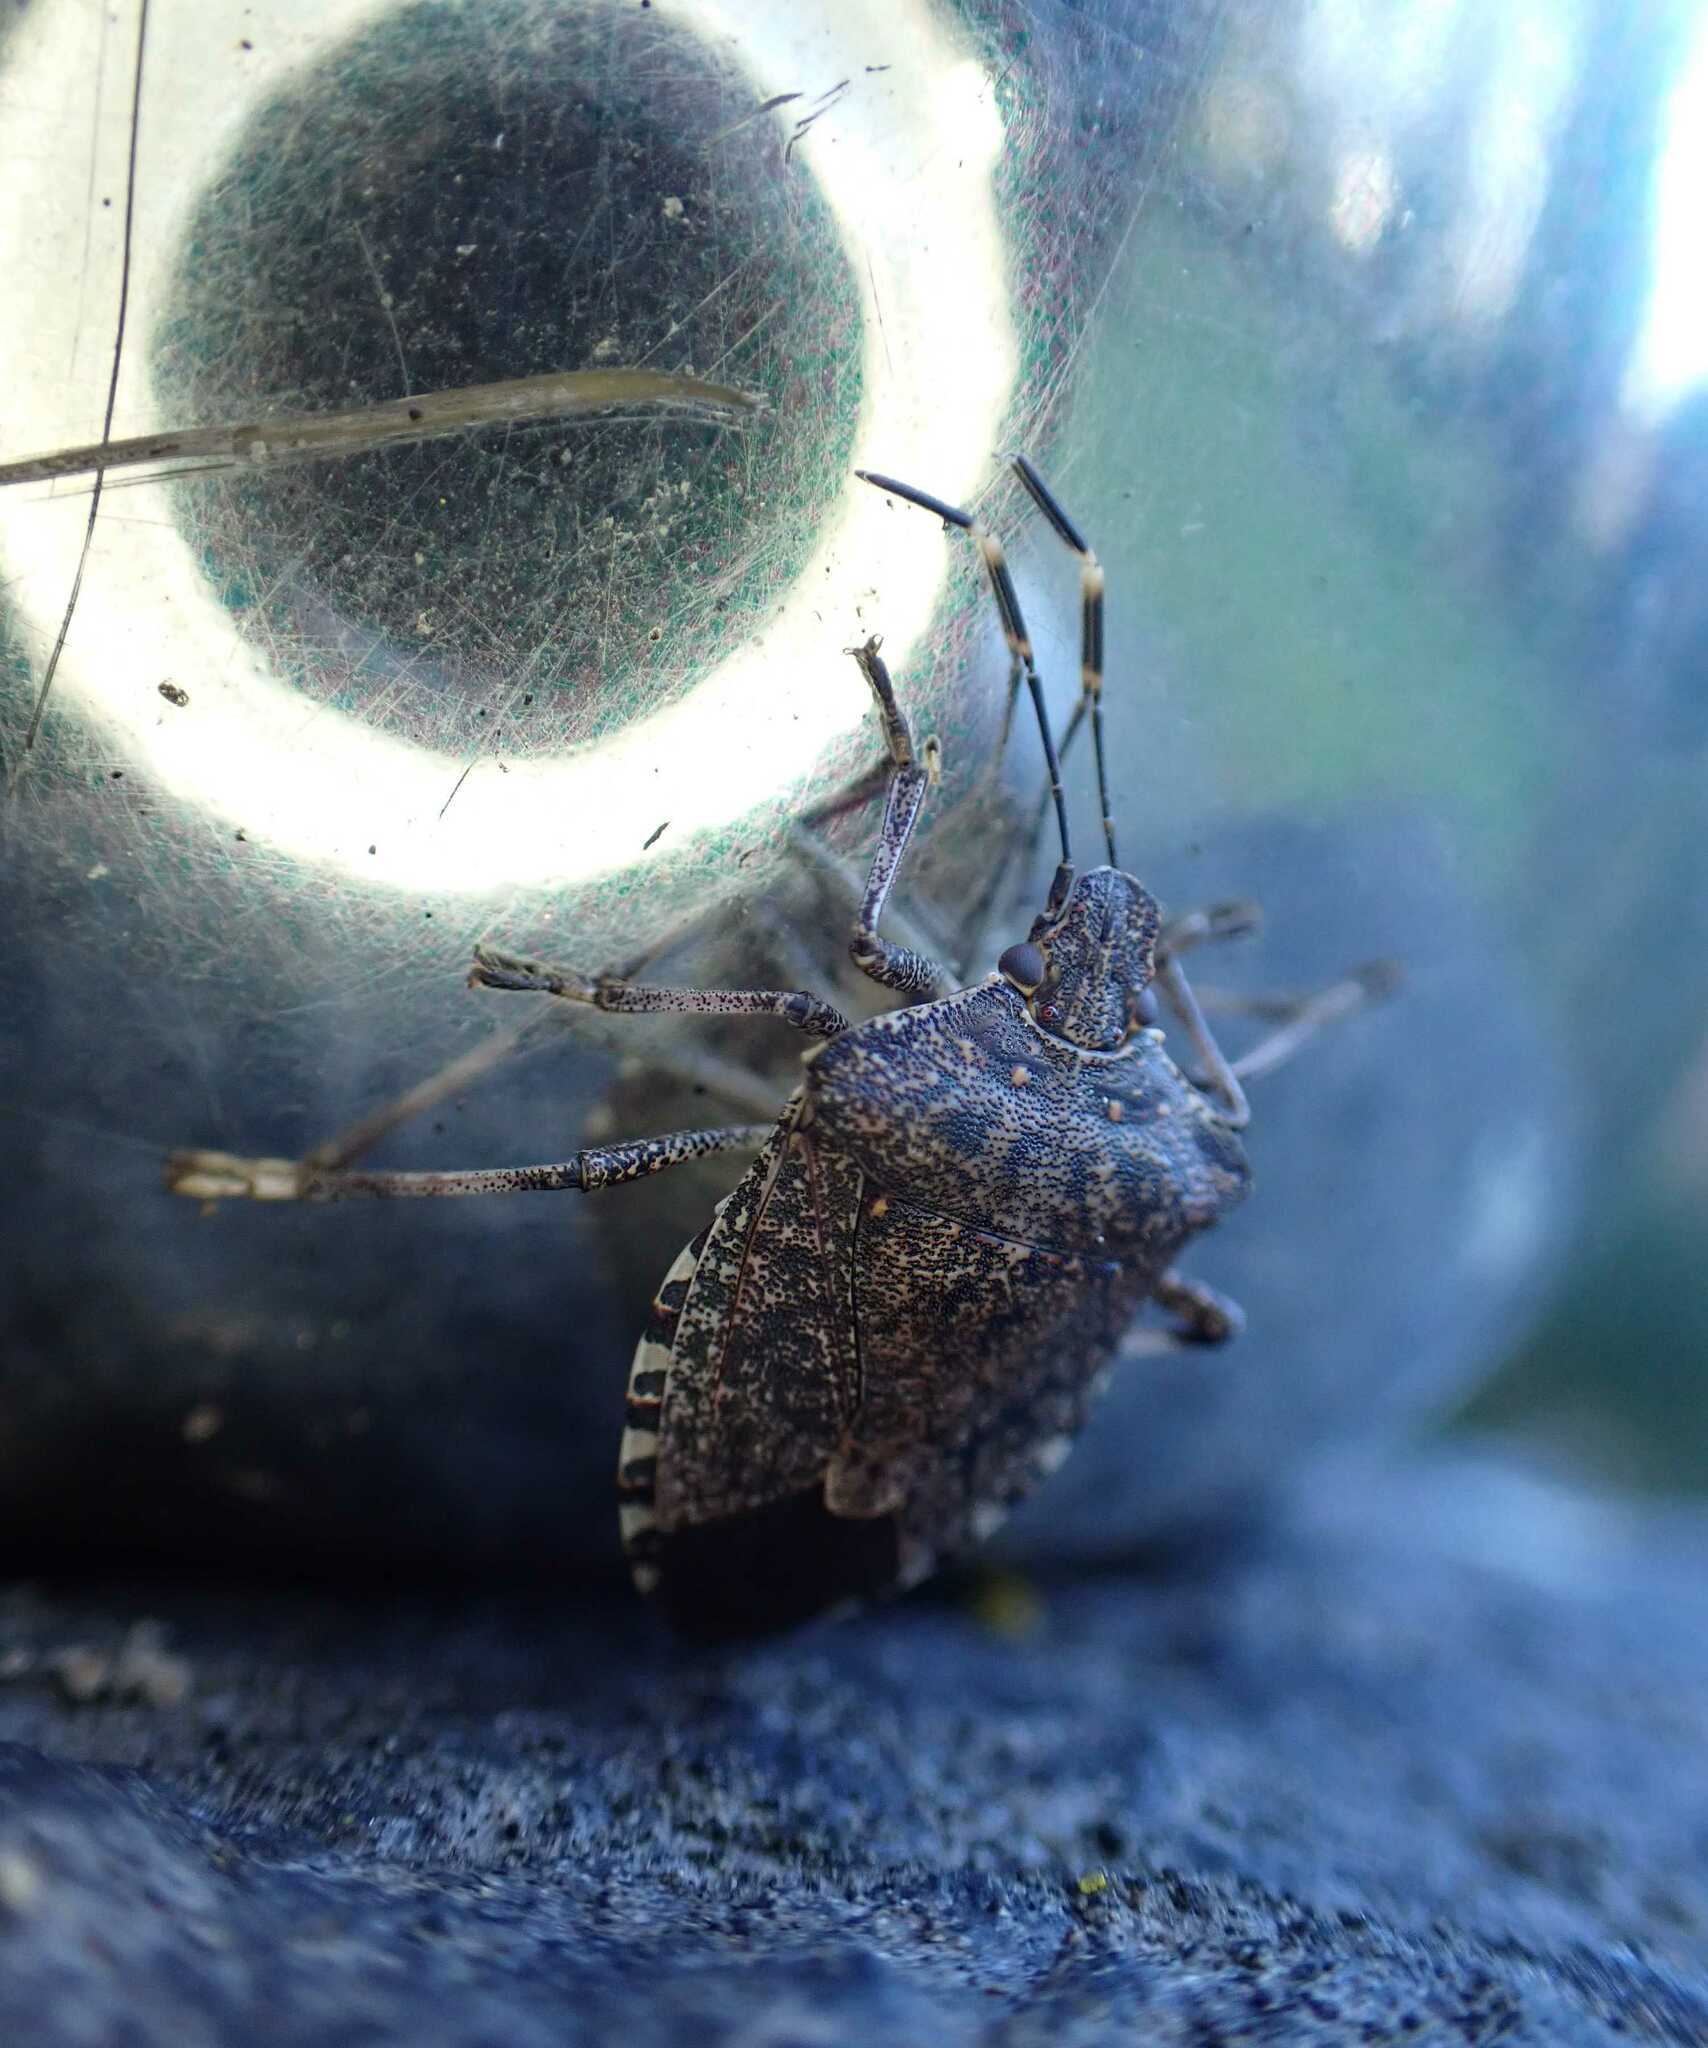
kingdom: Animalia
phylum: Arthropoda
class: Insecta
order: Hemiptera
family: Pentatomidae
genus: Halyomorpha
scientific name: Halyomorpha halys
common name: Brown marmorated stink bug
